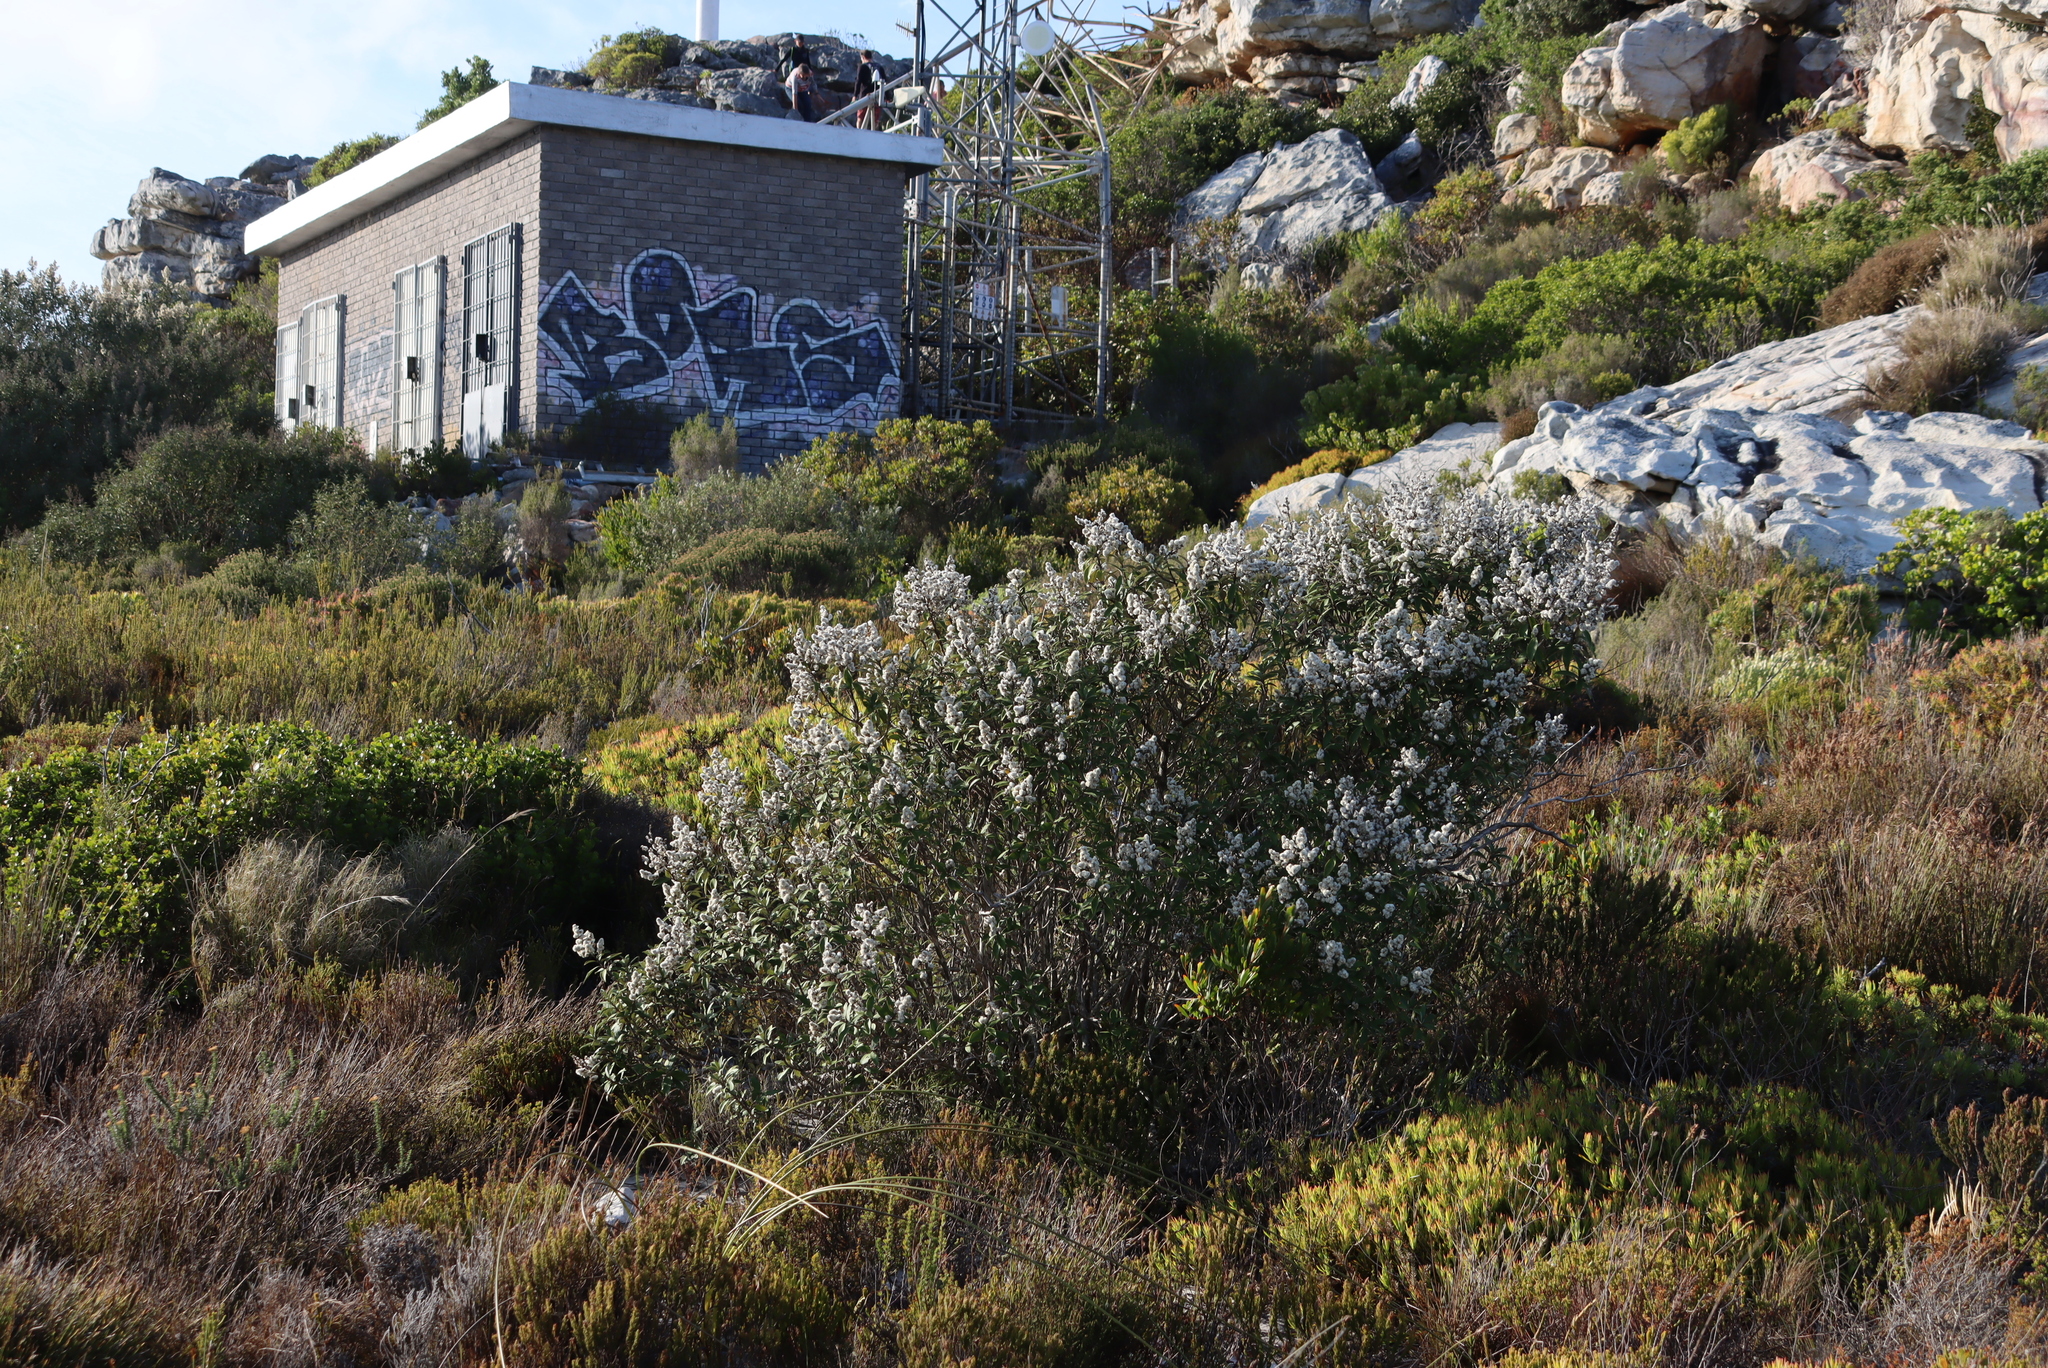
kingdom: Plantae
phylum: Tracheophyta
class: Magnoliopsida
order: Asterales
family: Asteraceae
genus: Tarchonanthus
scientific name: Tarchonanthus littoralis
